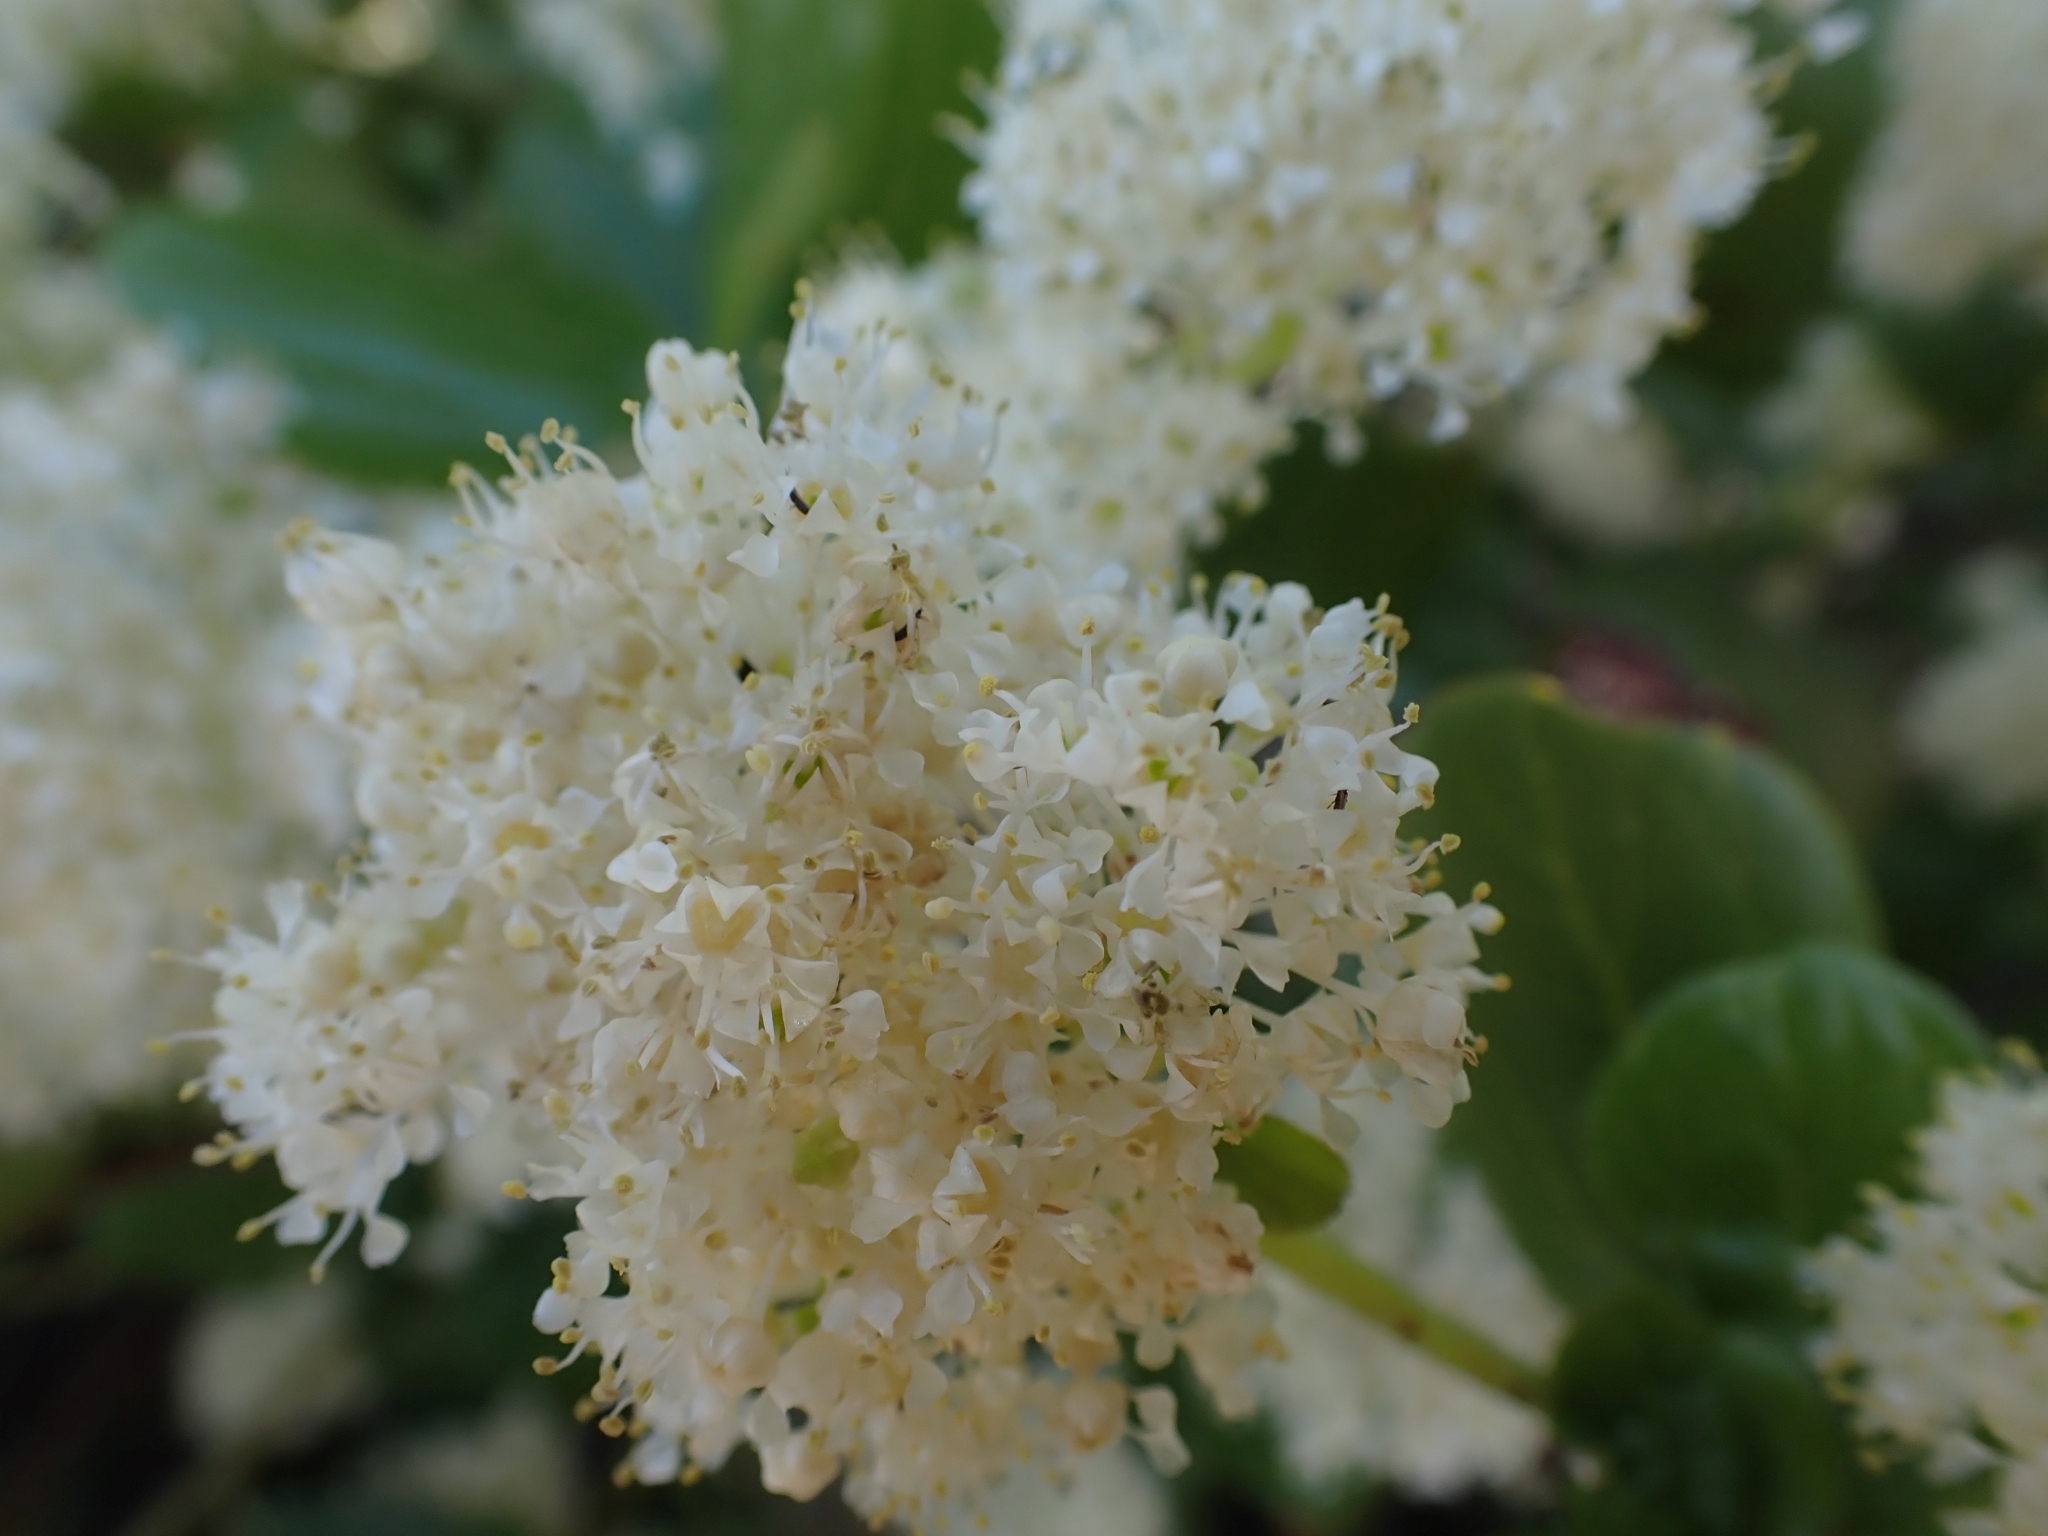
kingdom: Plantae
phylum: Tracheophyta
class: Magnoliopsida
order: Rosales
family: Rhamnaceae
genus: Ceanothus
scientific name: Ceanothus velutinus
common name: Snowbrush
